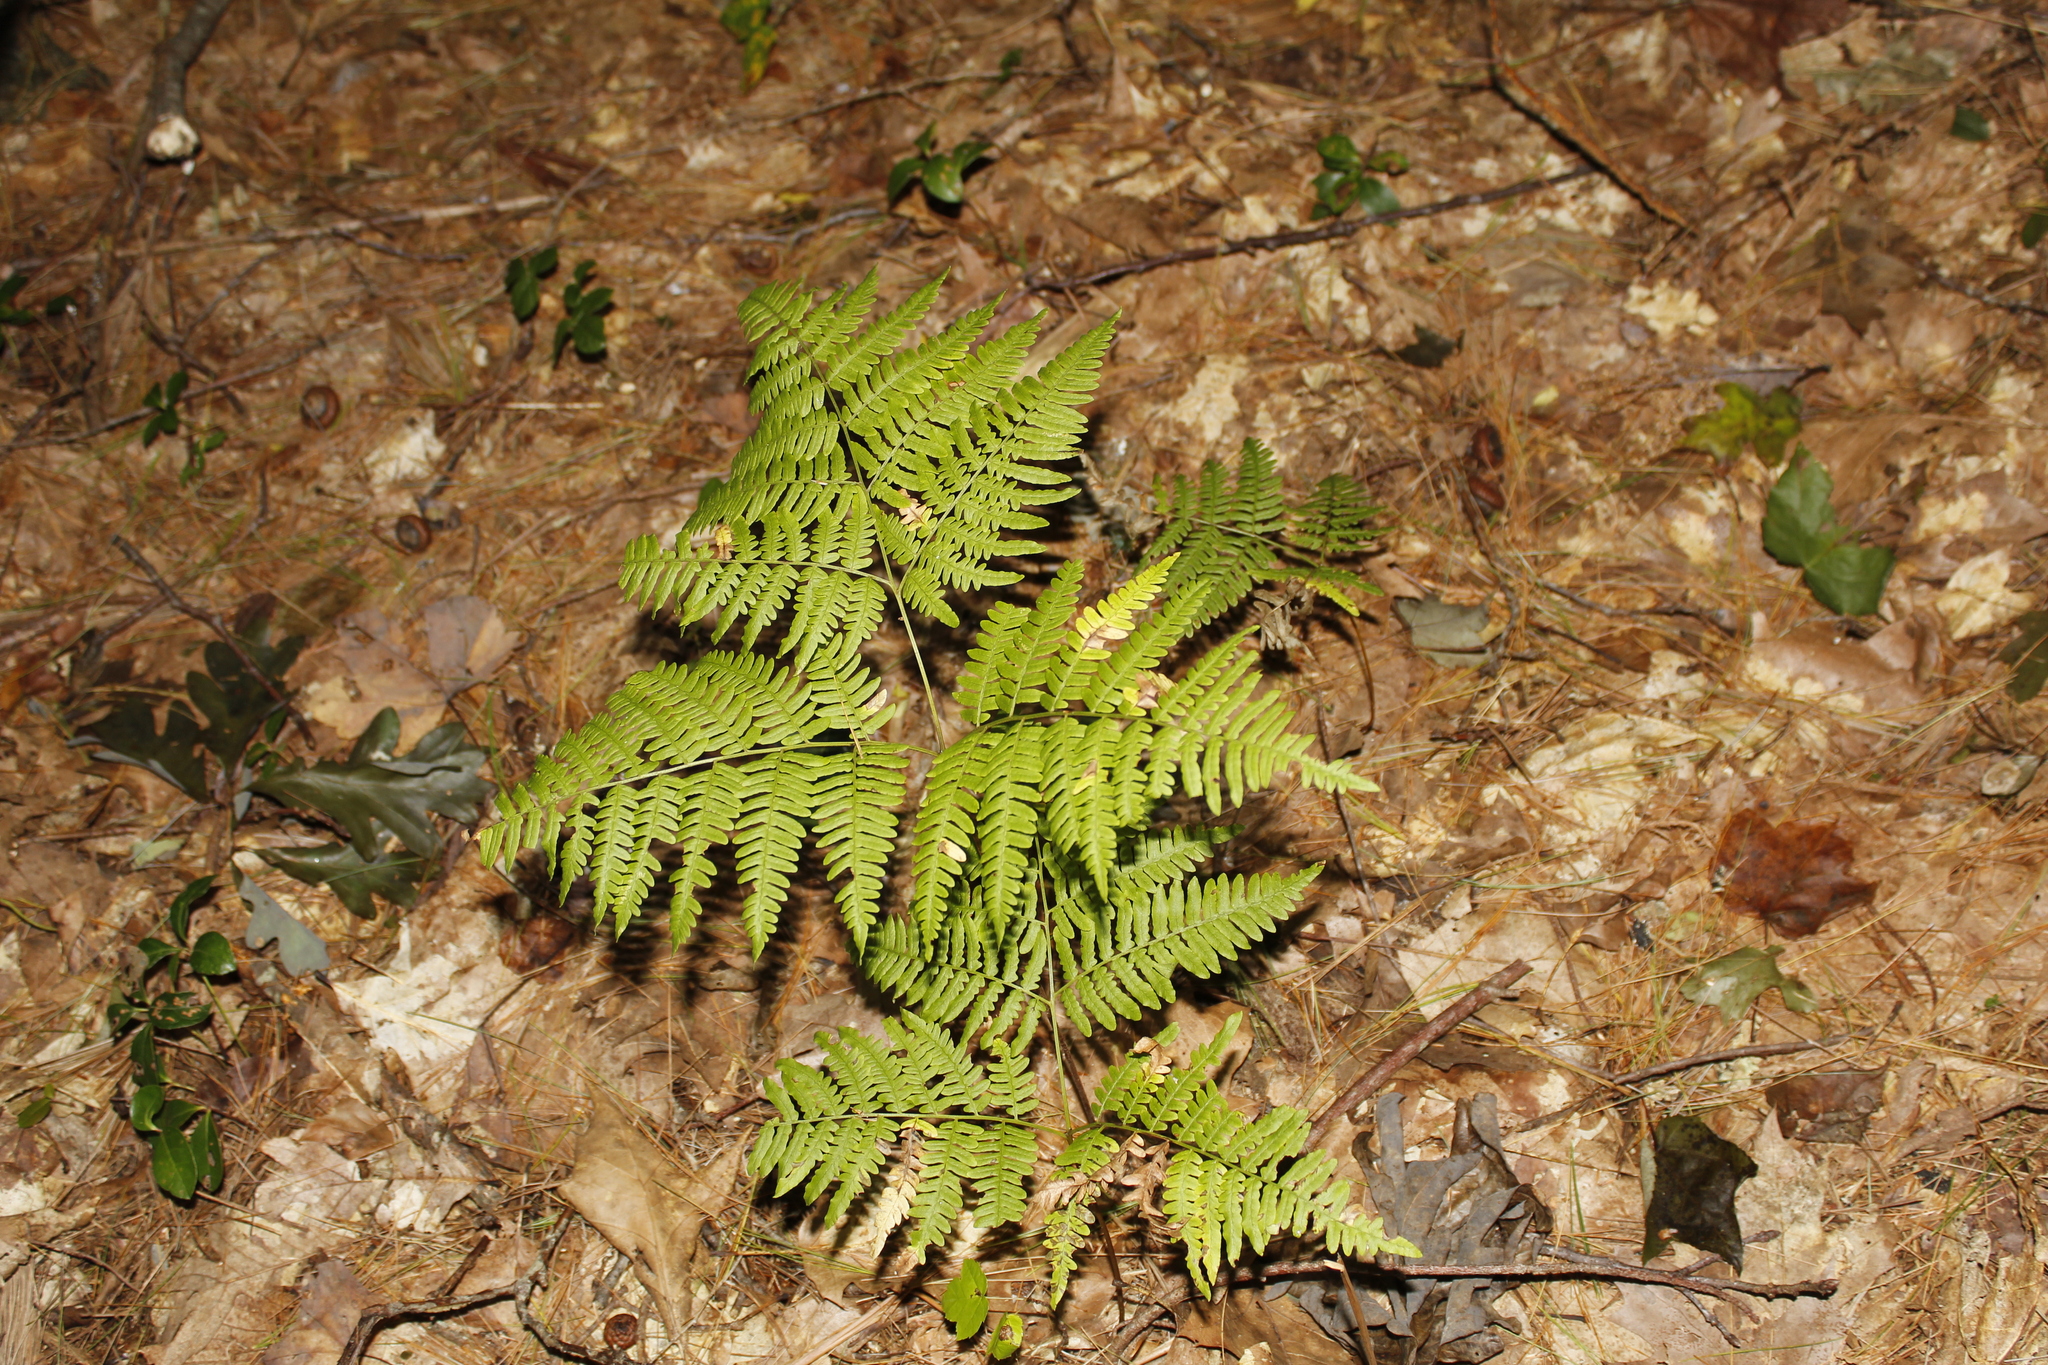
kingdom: Plantae
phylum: Tracheophyta
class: Polypodiopsida
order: Polypodiales
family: Dennstaedtiaceae
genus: Pteridium
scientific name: Pteridium aquilinum
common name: Bracken
